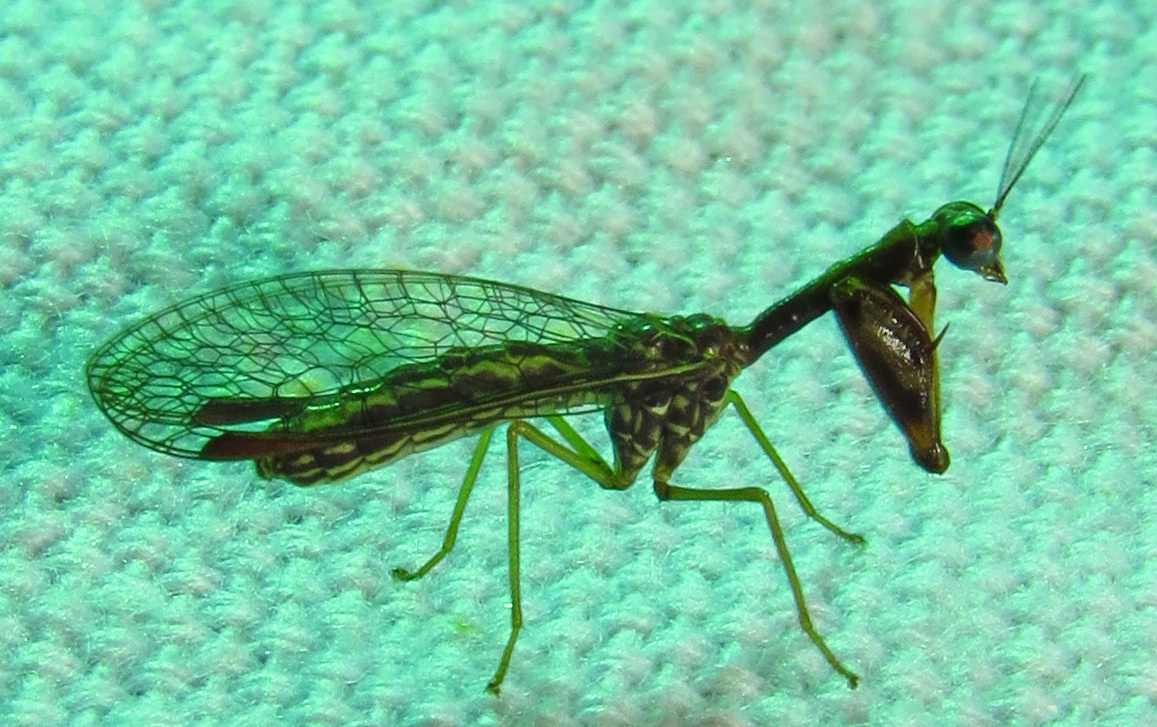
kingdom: Animalia
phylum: Arthropoda
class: Insecta
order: Neuroptera
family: Mantispidae
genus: Leptomantispa
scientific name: Leptomantispa pulchella
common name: Stevens's mantidfly
